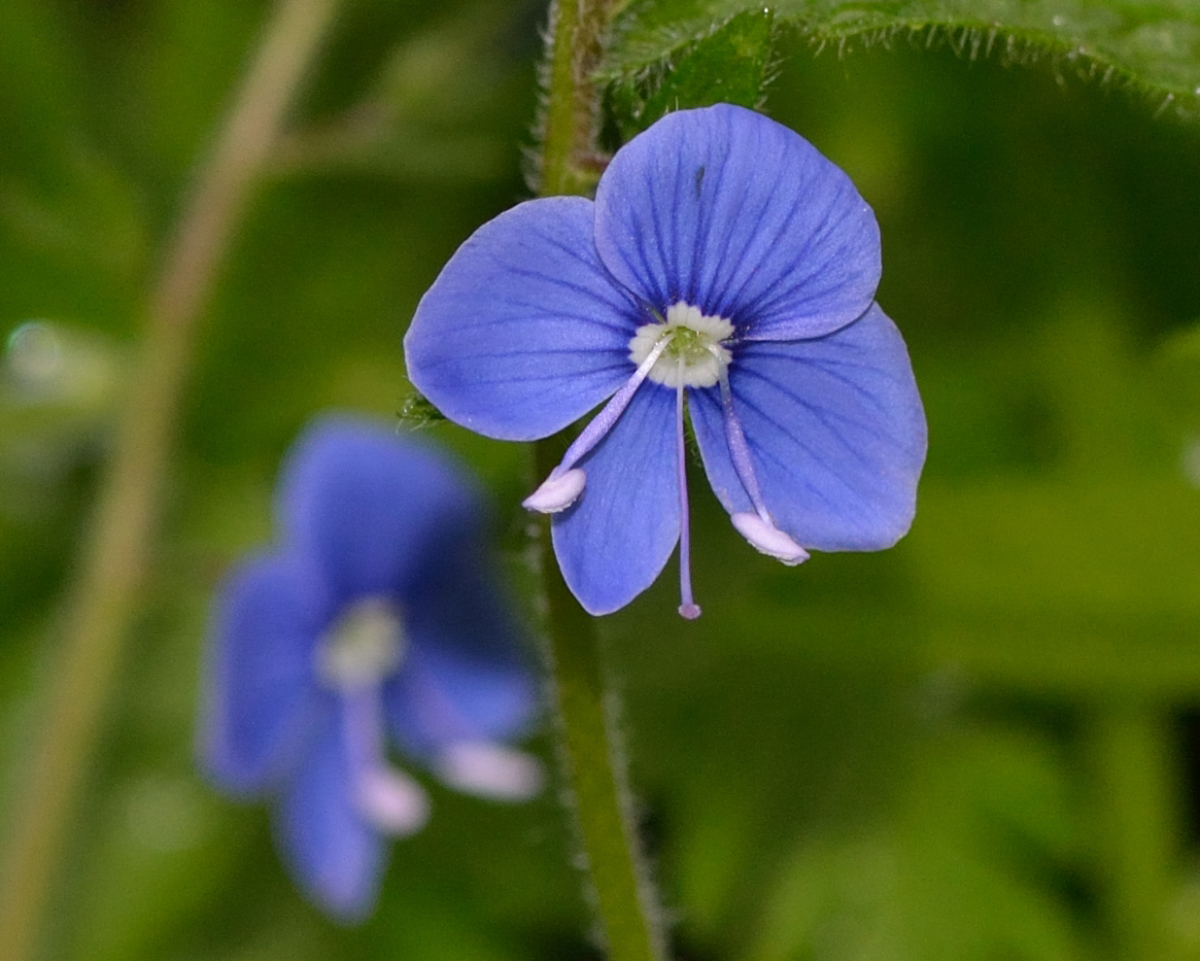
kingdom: Plantae
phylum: Tracheophyta
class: Magnoliopsida
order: Lamiales
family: Plantaginaceae
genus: Veronica
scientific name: Veronica chamaedrys
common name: Germander speedwell
